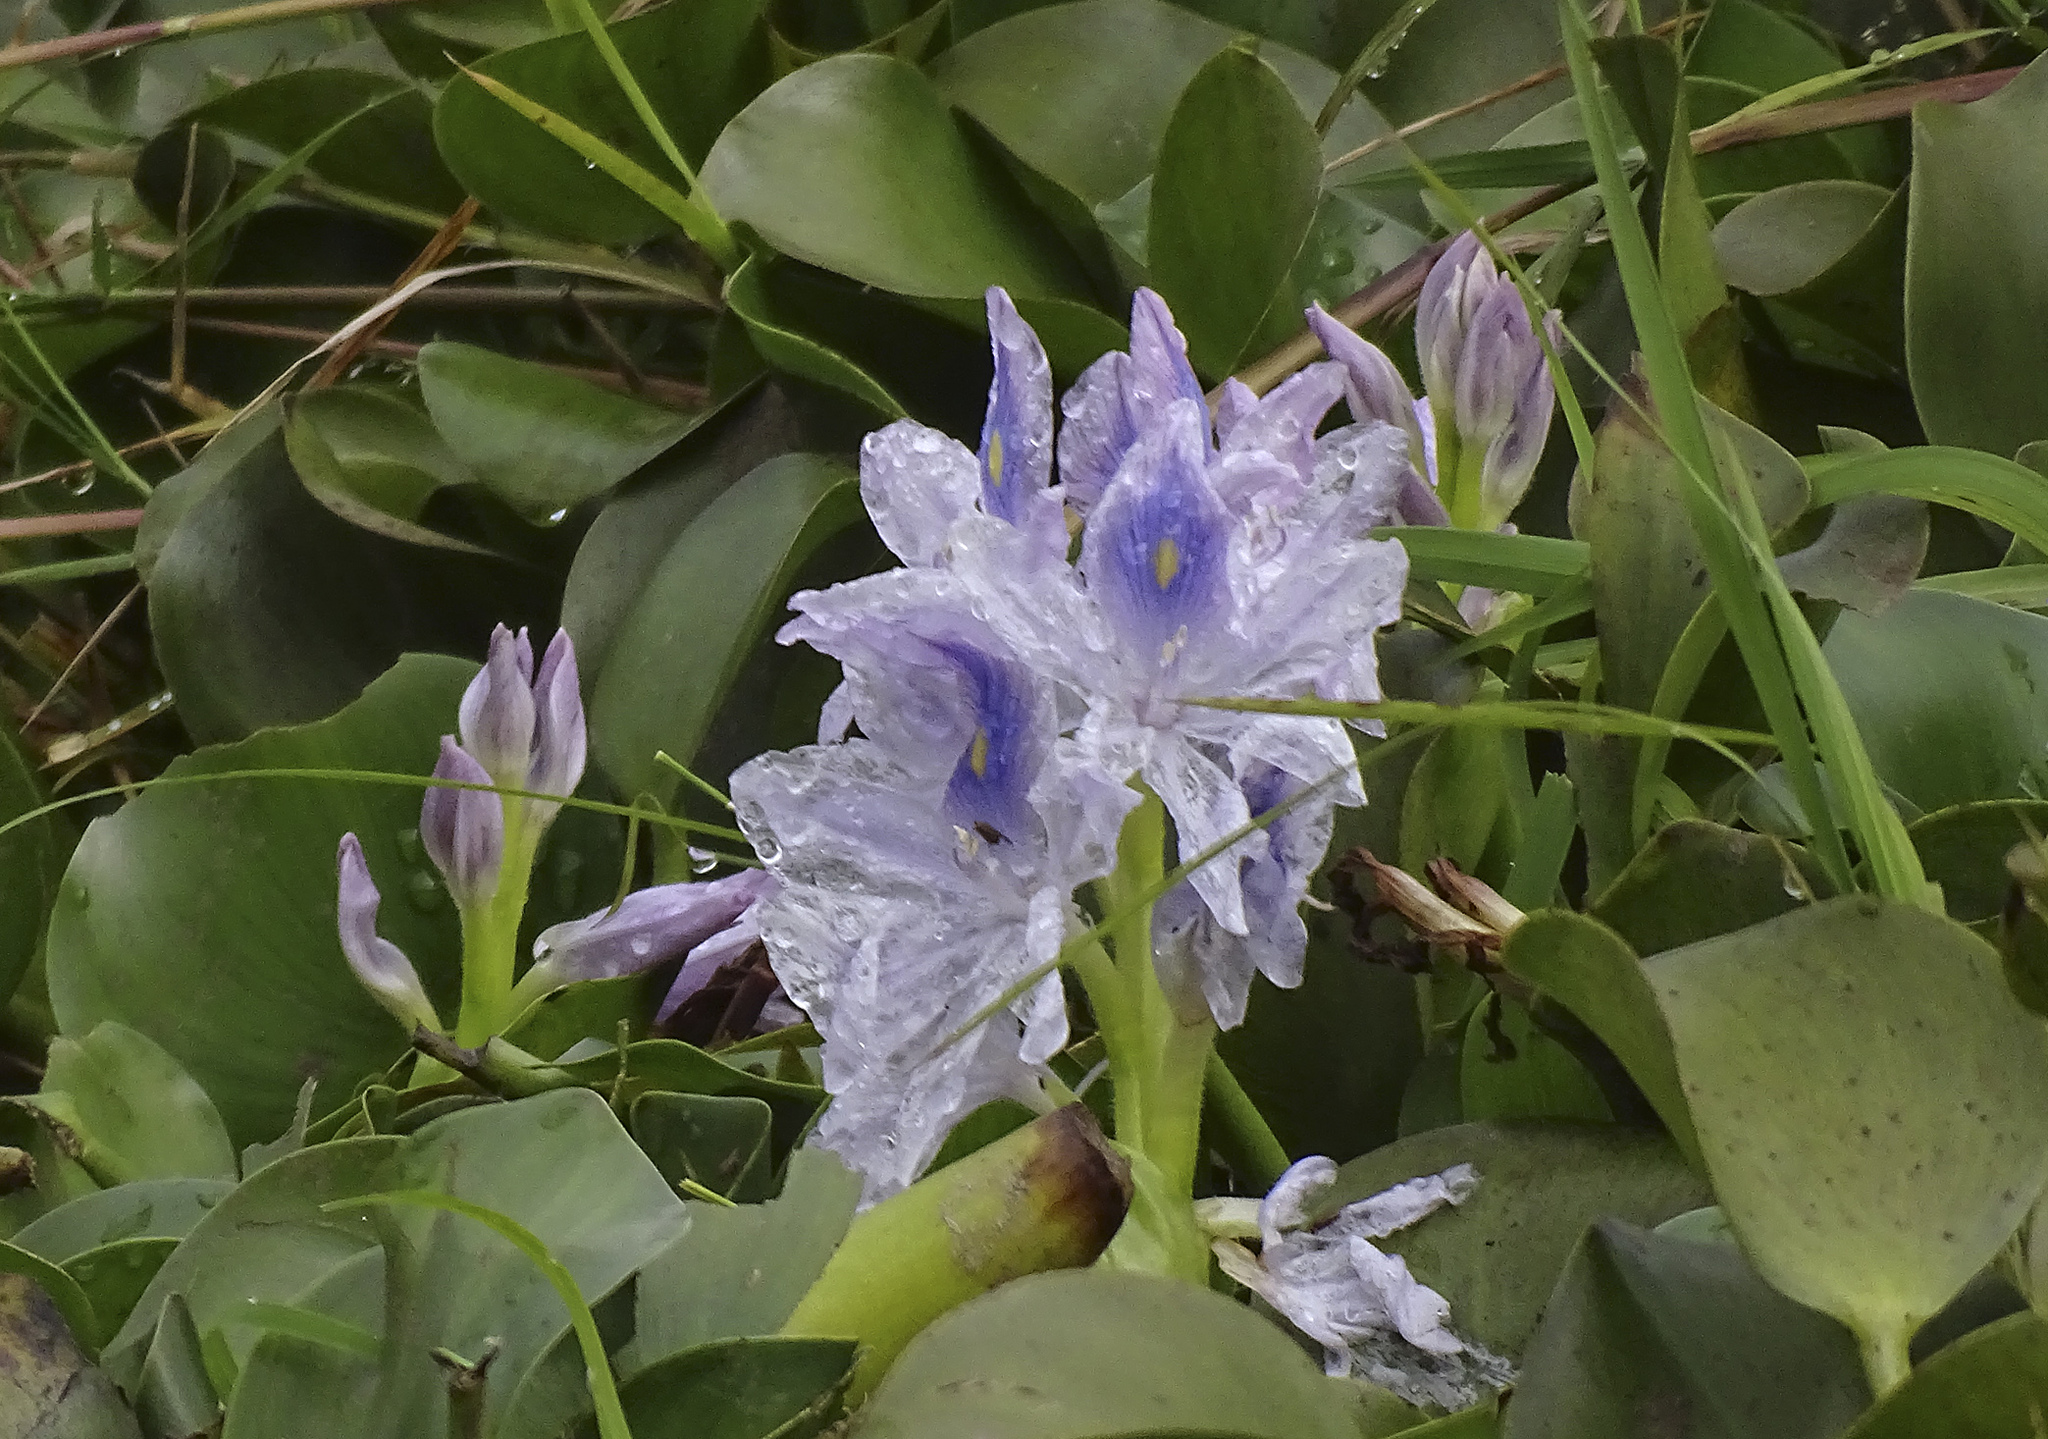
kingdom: Plantae
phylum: Tracheophyta
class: Liliopsida
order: Commelinales
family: Pontederiaceae
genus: Pontederia
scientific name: Pontederia crassipes
